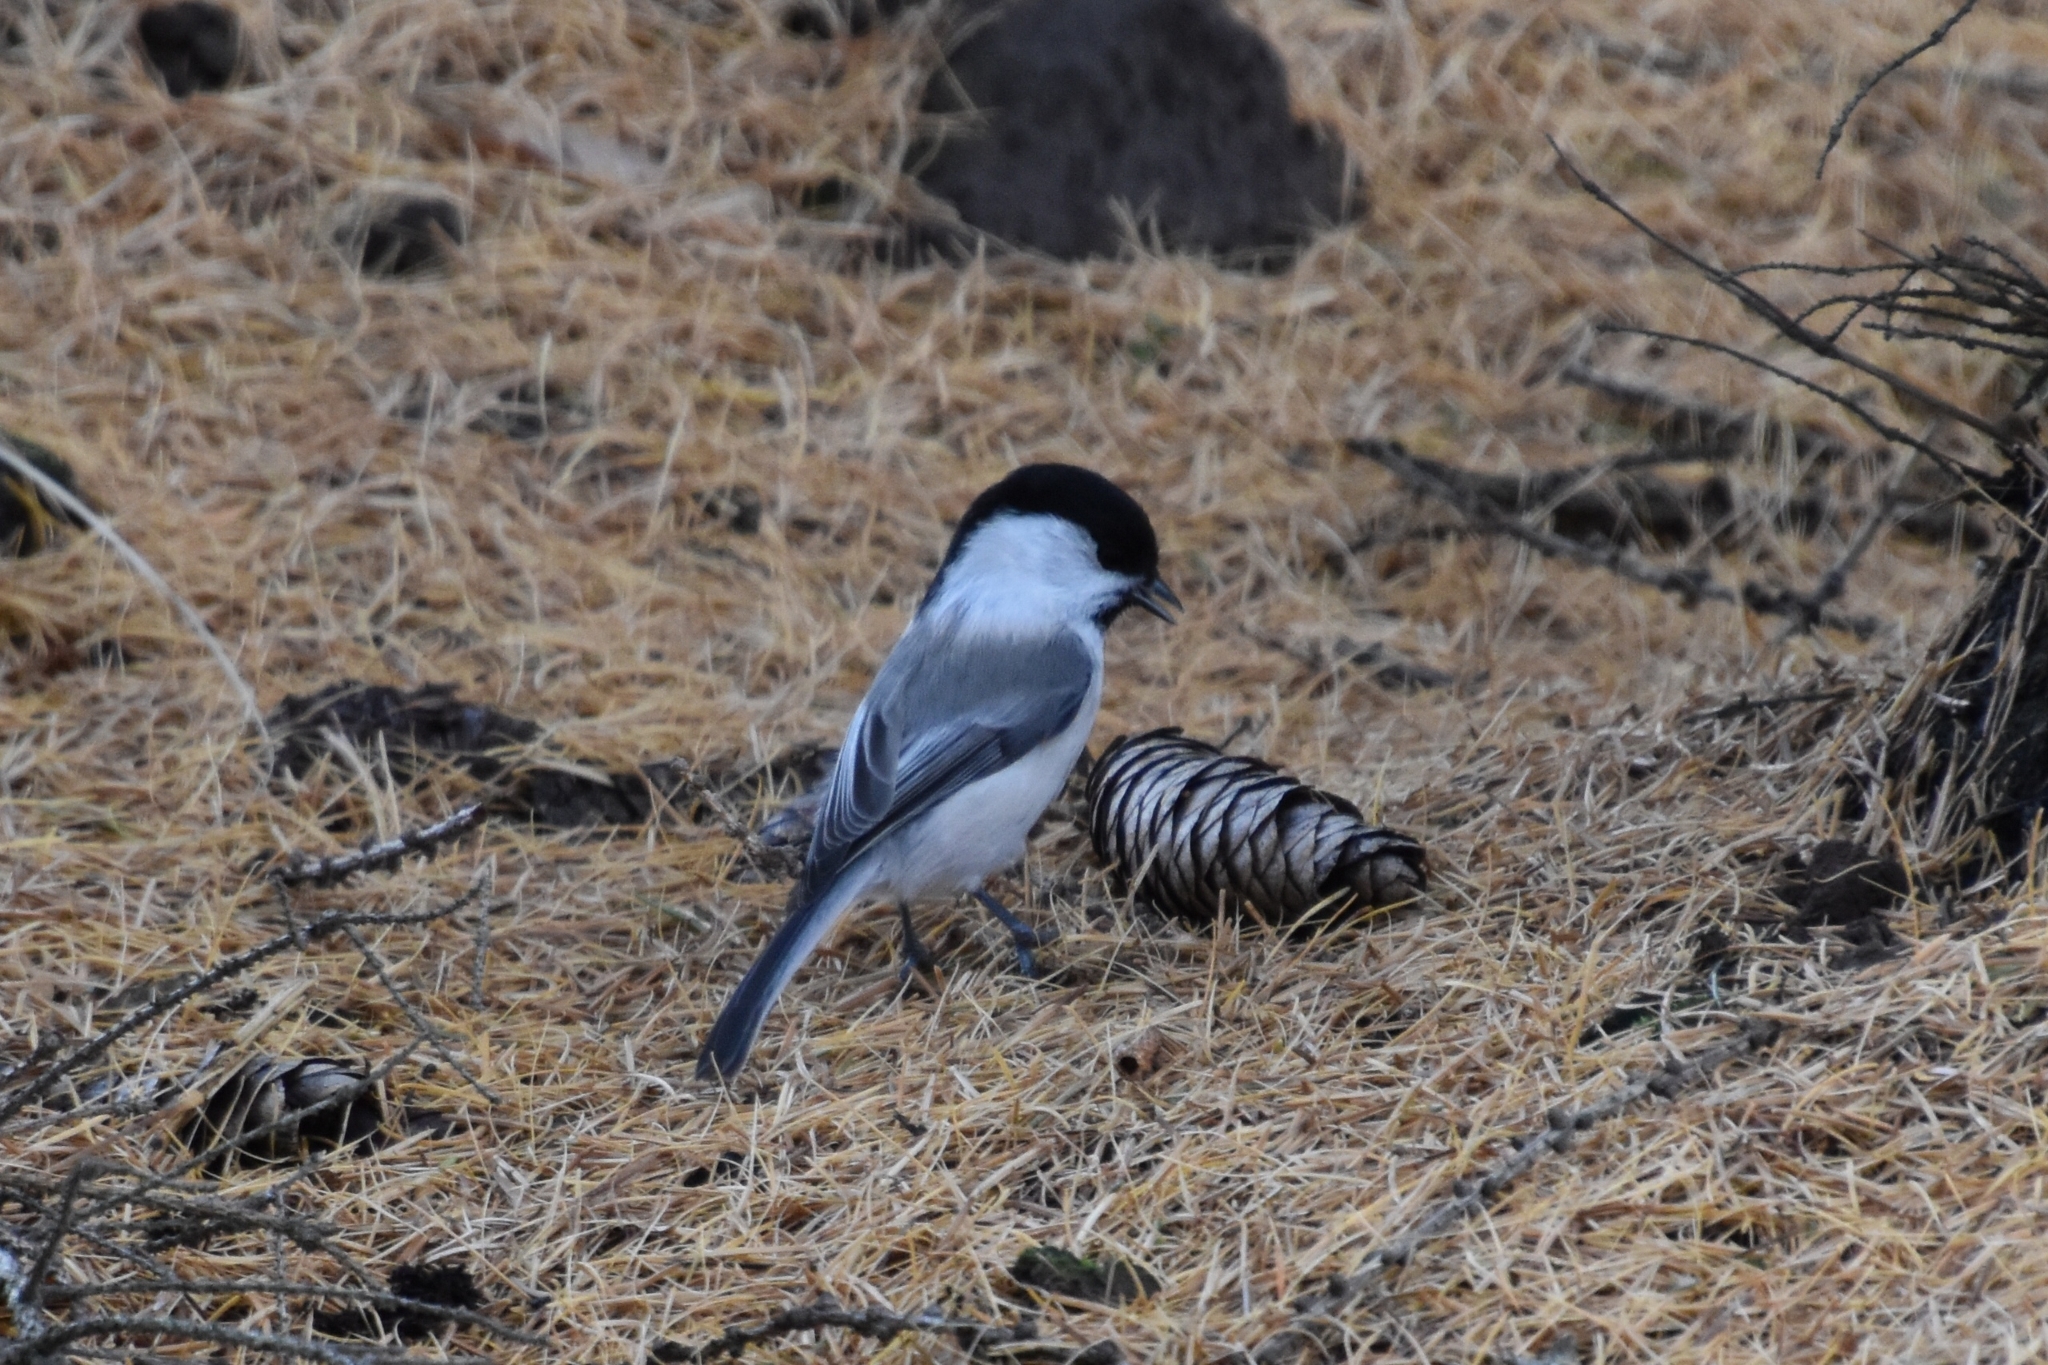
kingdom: Animalia
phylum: Chordata
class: Aves
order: Passeriformes
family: Paridae
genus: Poecile
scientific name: Poecile montanus
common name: Willow tit
